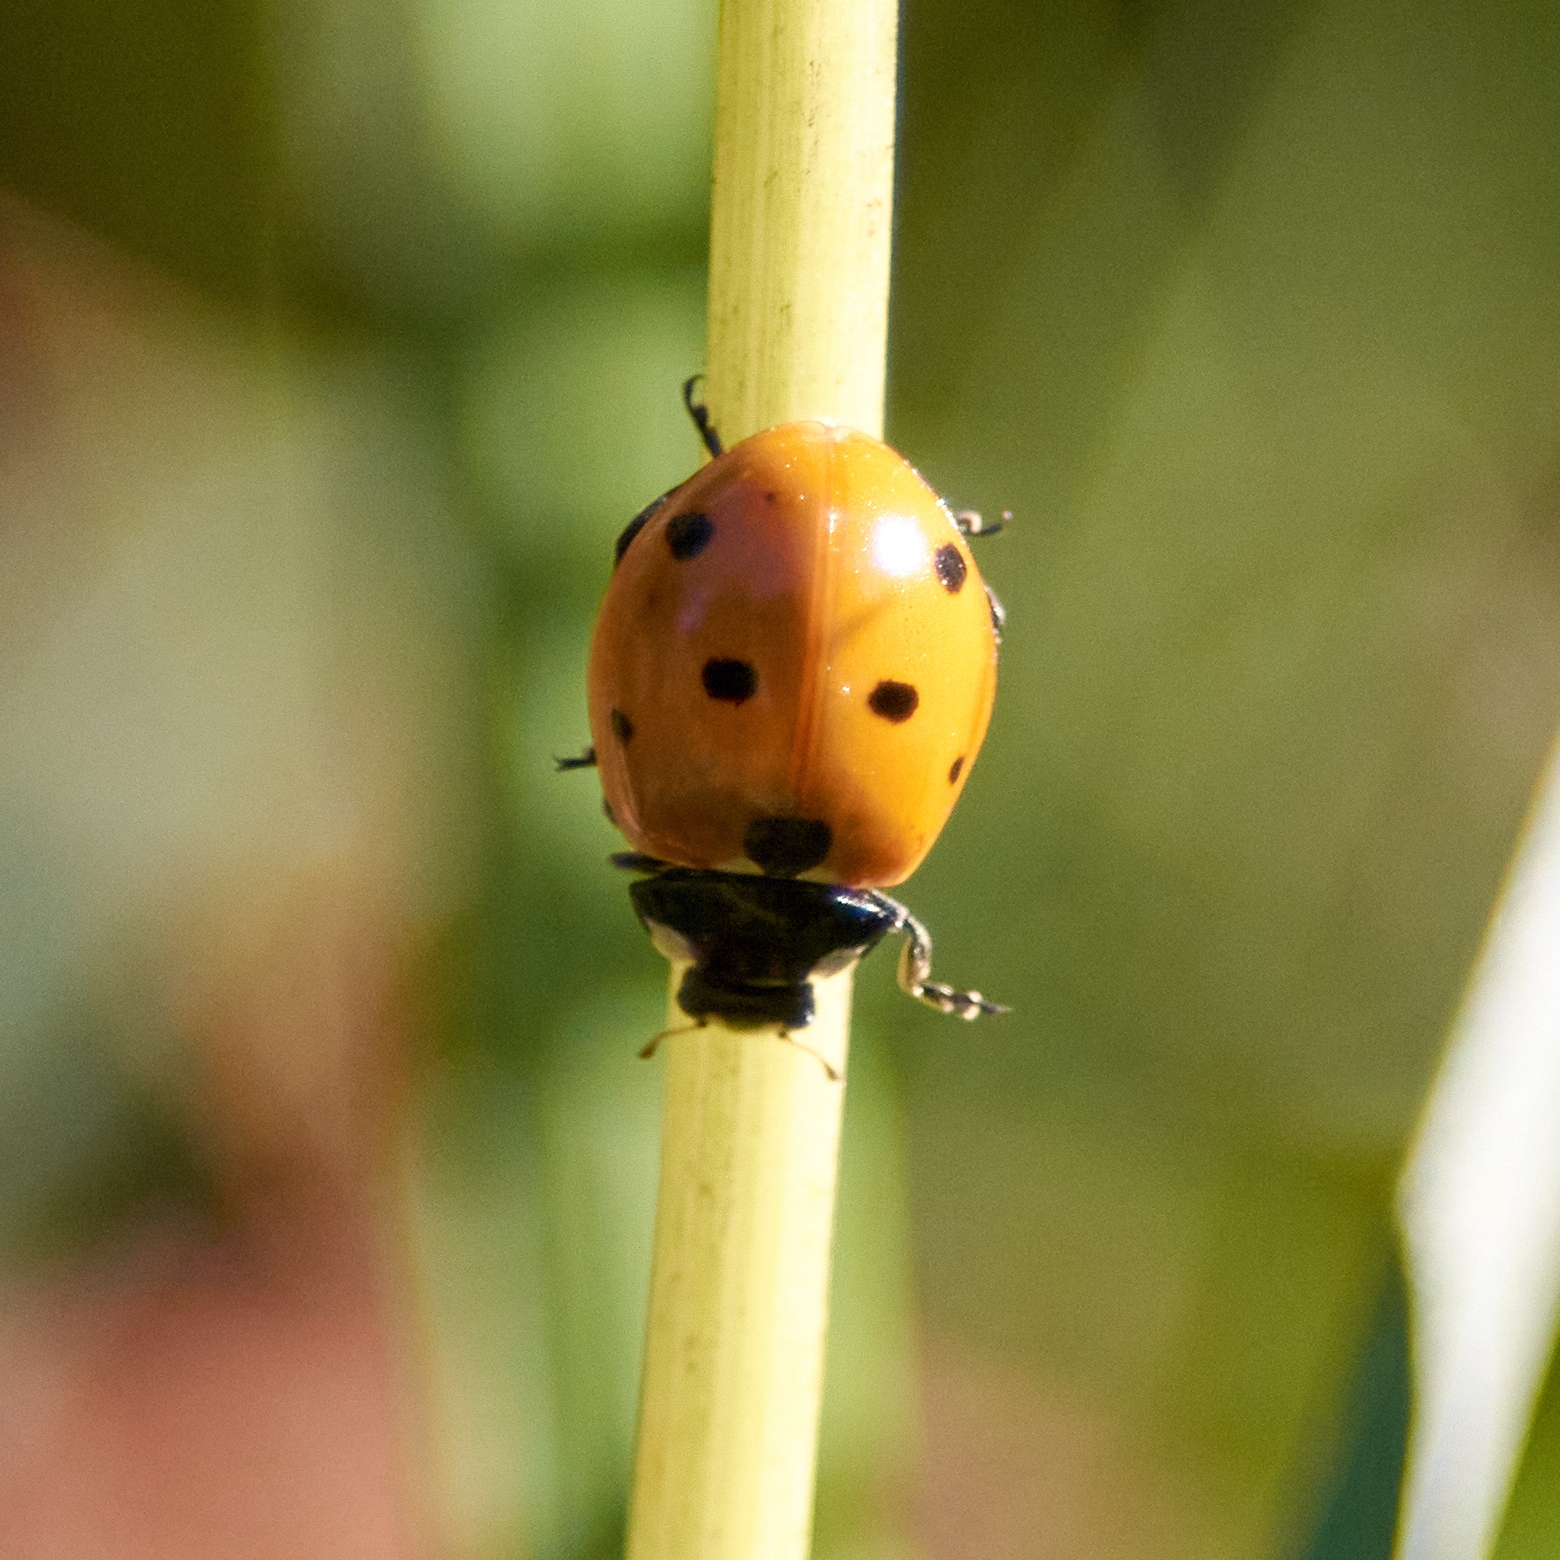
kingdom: Animalia
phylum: Arthropoda
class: Insecta
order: Coleoptera
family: Coccinellidae
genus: Coccinella
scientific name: Coccinella septempunctata
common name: Sevenspotted lady beetle
